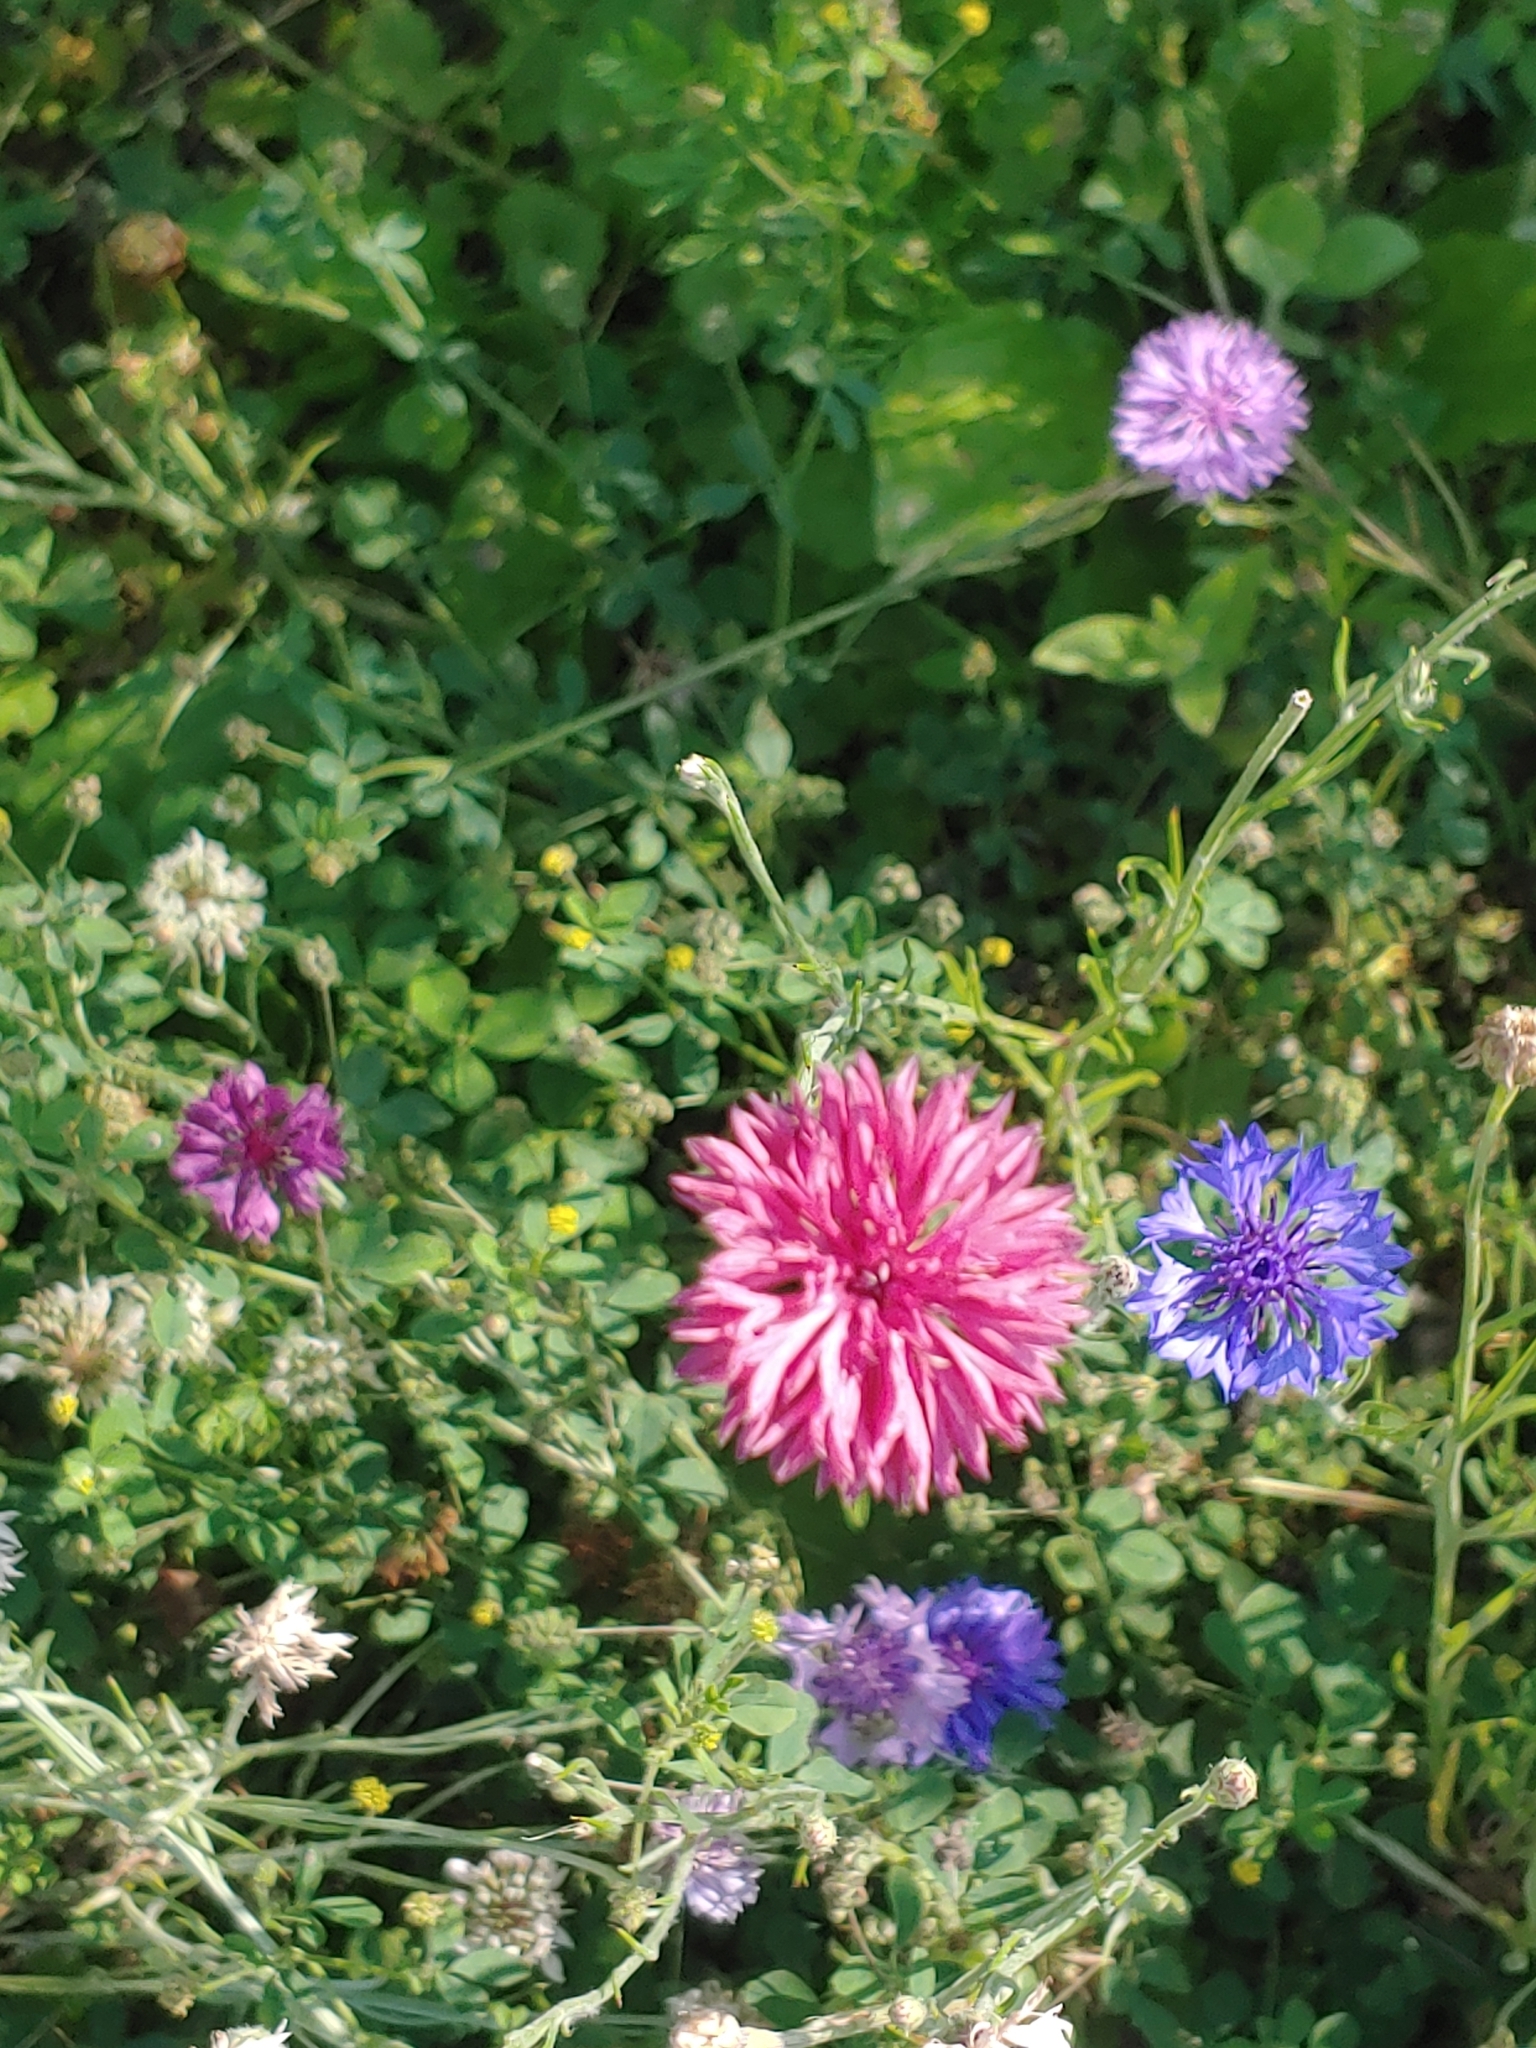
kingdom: Plantae
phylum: Tracheophyta
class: Magnoliopsida
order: Asterales
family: Asteraceae
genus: Centaurea
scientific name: Centaurea cyanus
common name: Cornflower
